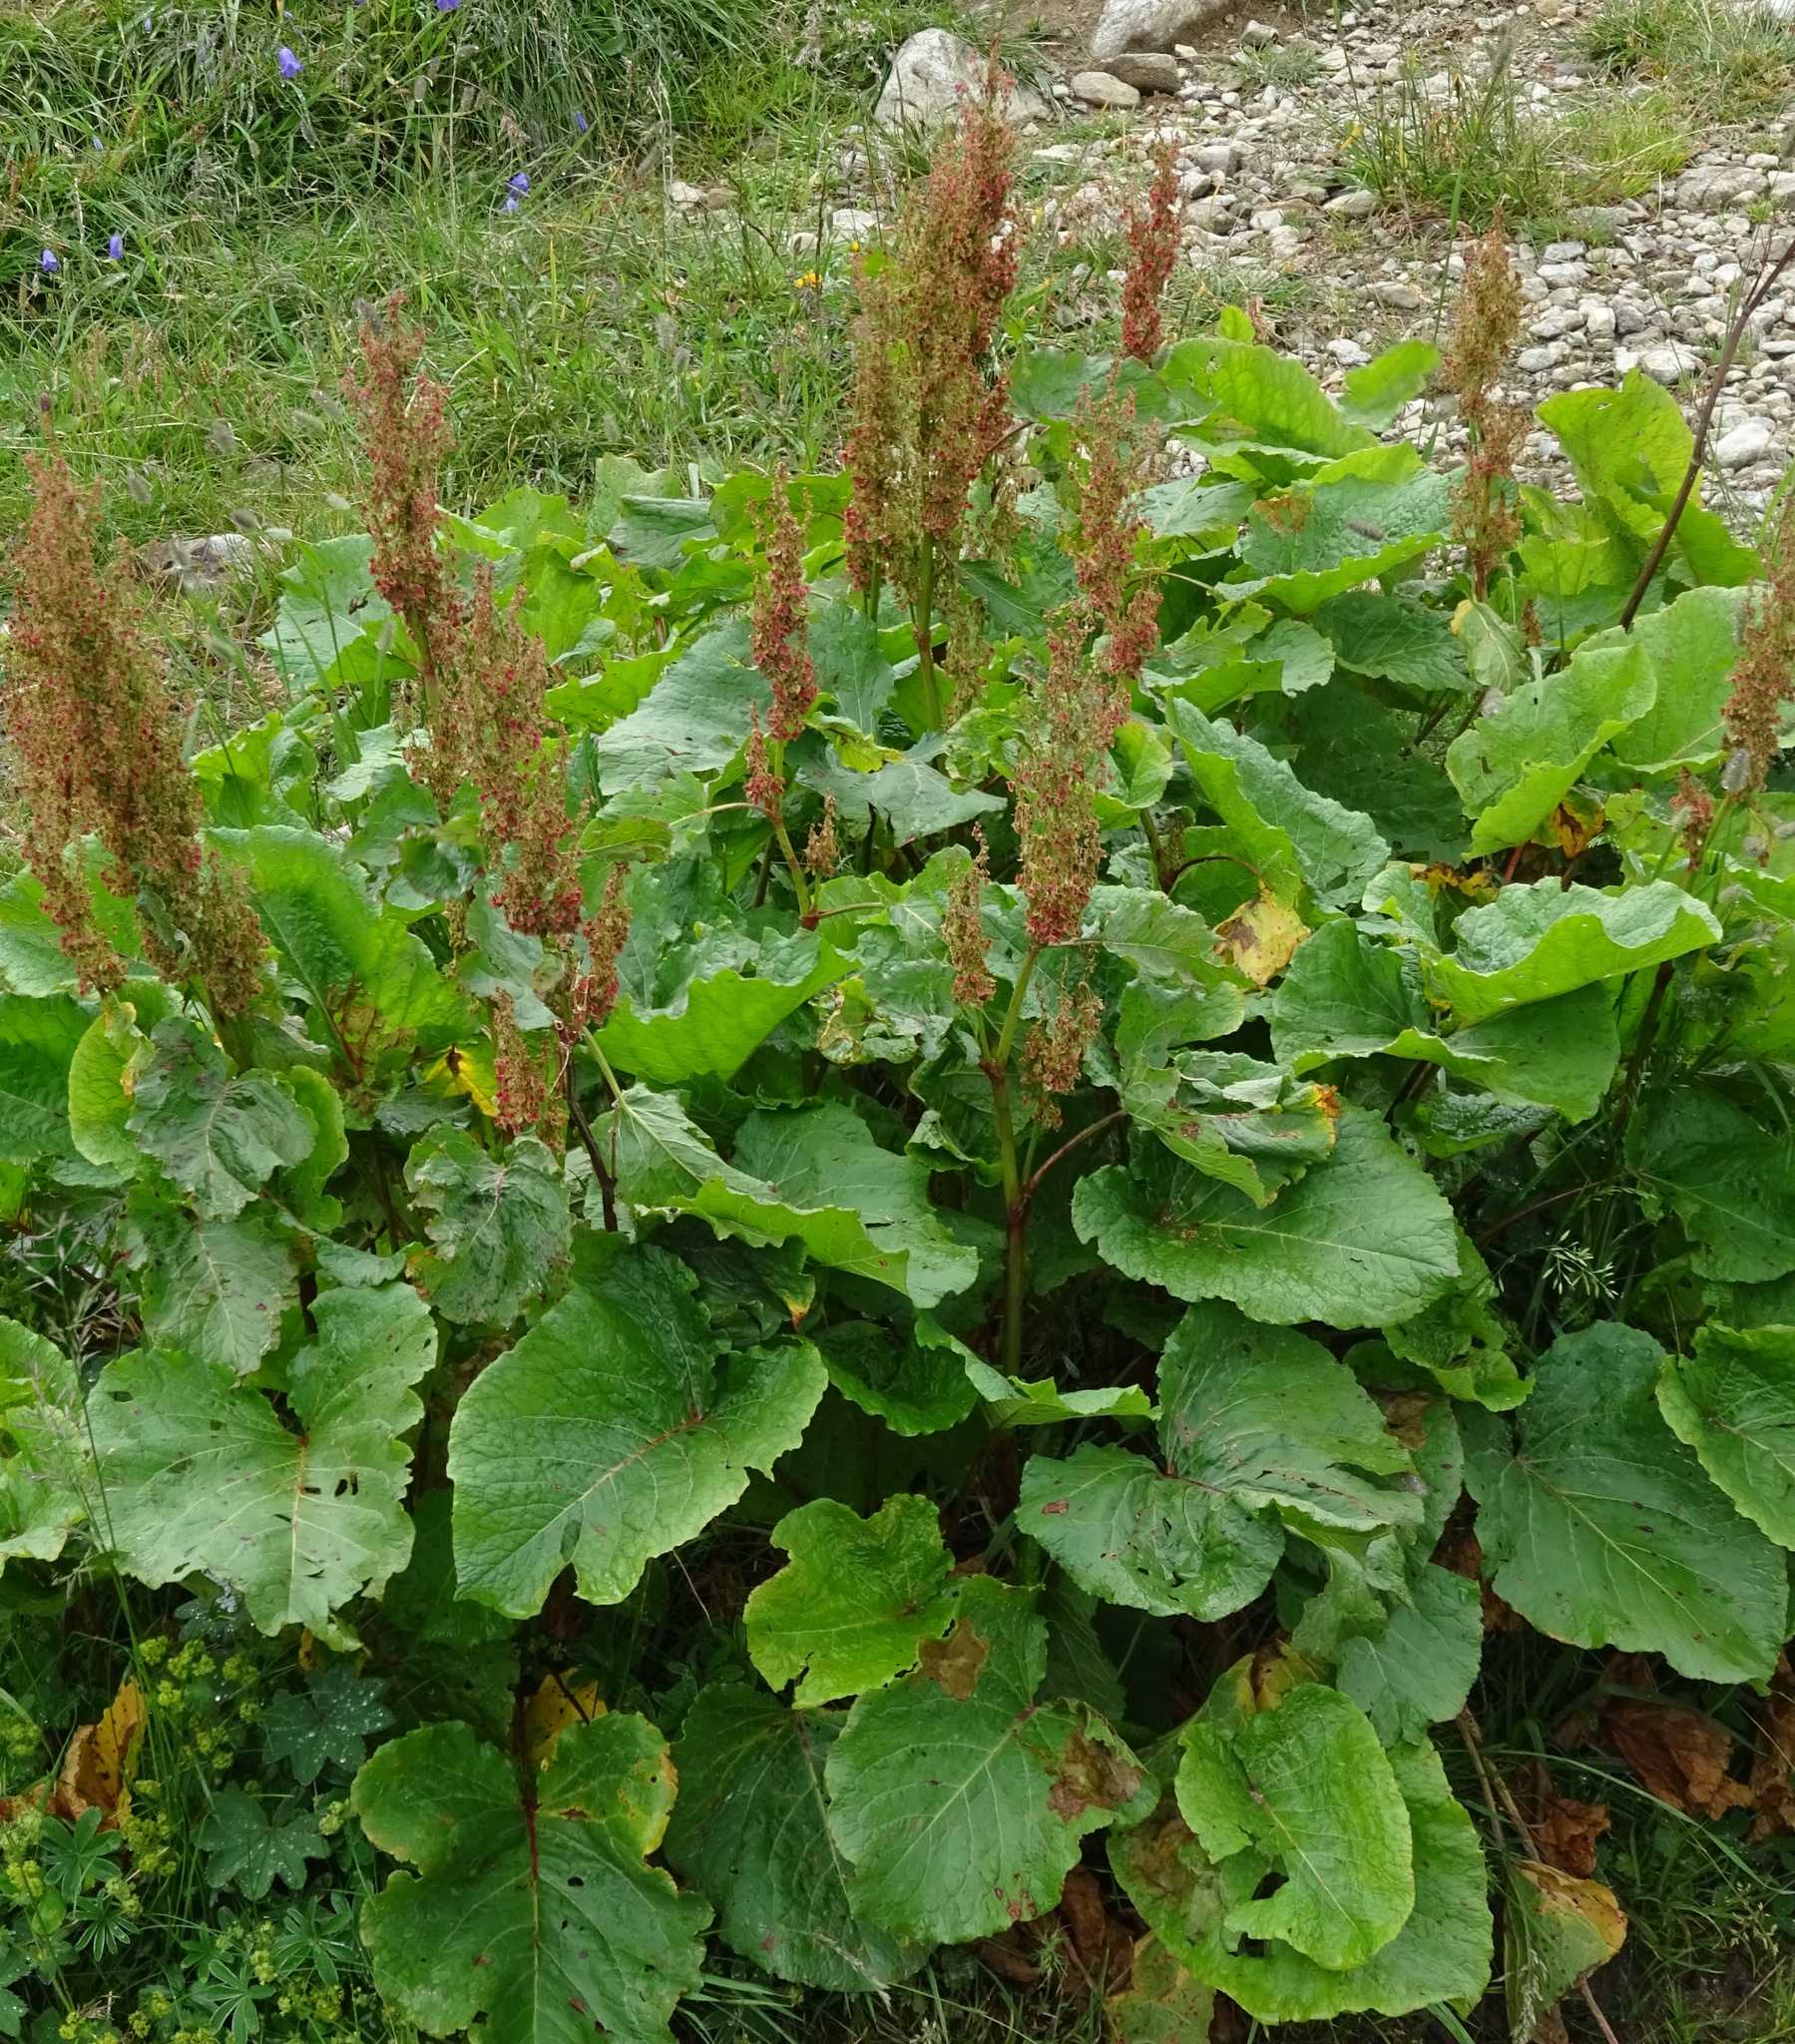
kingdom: Plantae
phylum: Tracheophyta
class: Magnoliopsida
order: Caryophyllales
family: Polygonaceae
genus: Rumex
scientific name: Rumex alpinus
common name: Alpine dock
